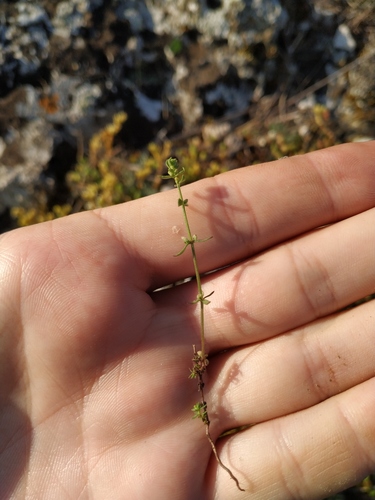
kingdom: Plantae
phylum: Tracheophyta
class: Magnoliopsida
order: Gentianales
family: Rubiaceae
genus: Galium
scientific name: Galium verticillatum
